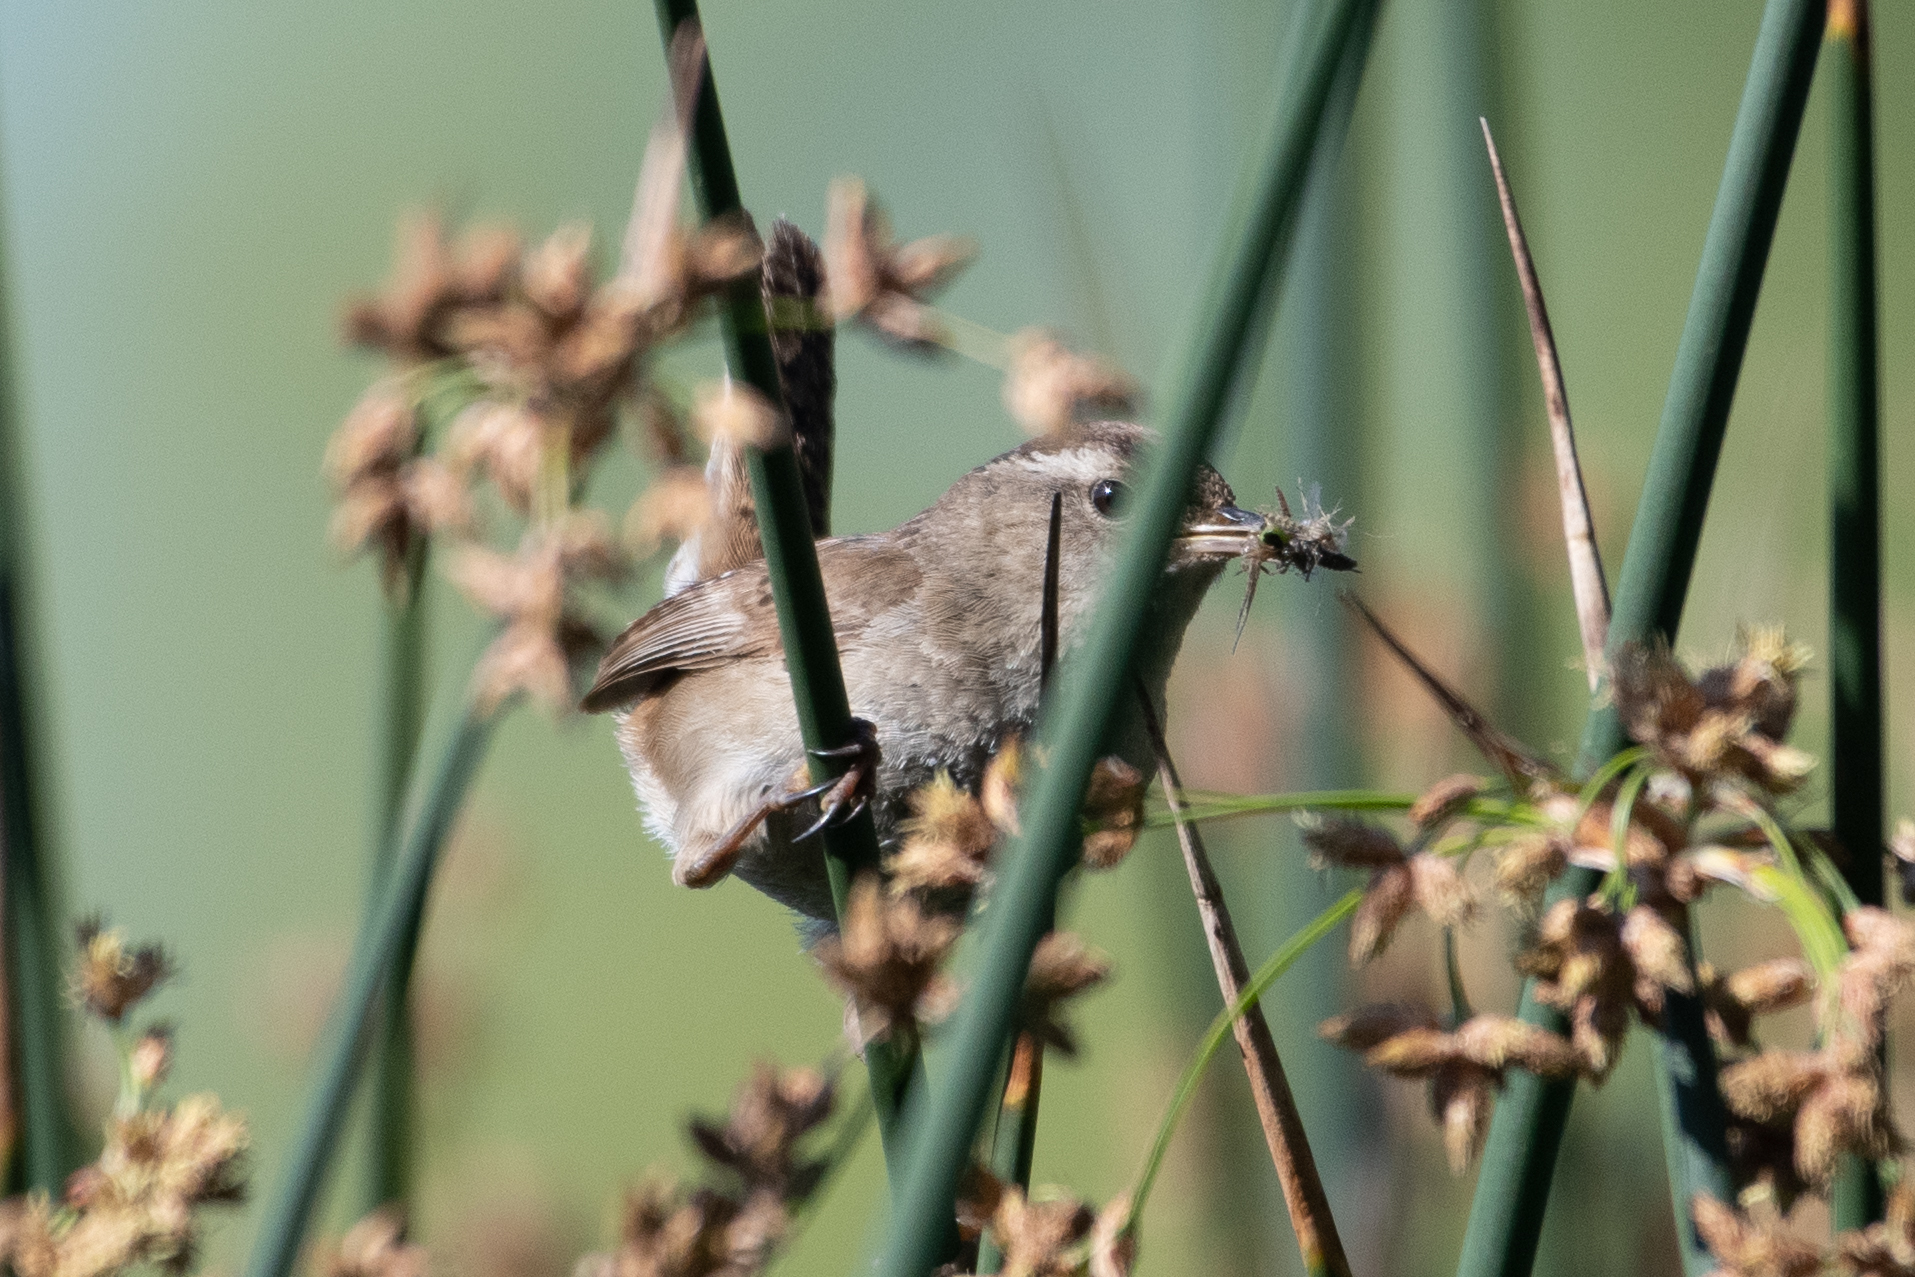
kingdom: Animalia
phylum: Chordata
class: Aves
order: Passeriformes
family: Troglodytidae
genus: Cistothorus
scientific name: Cistothorus palustris
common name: Marsh wren
